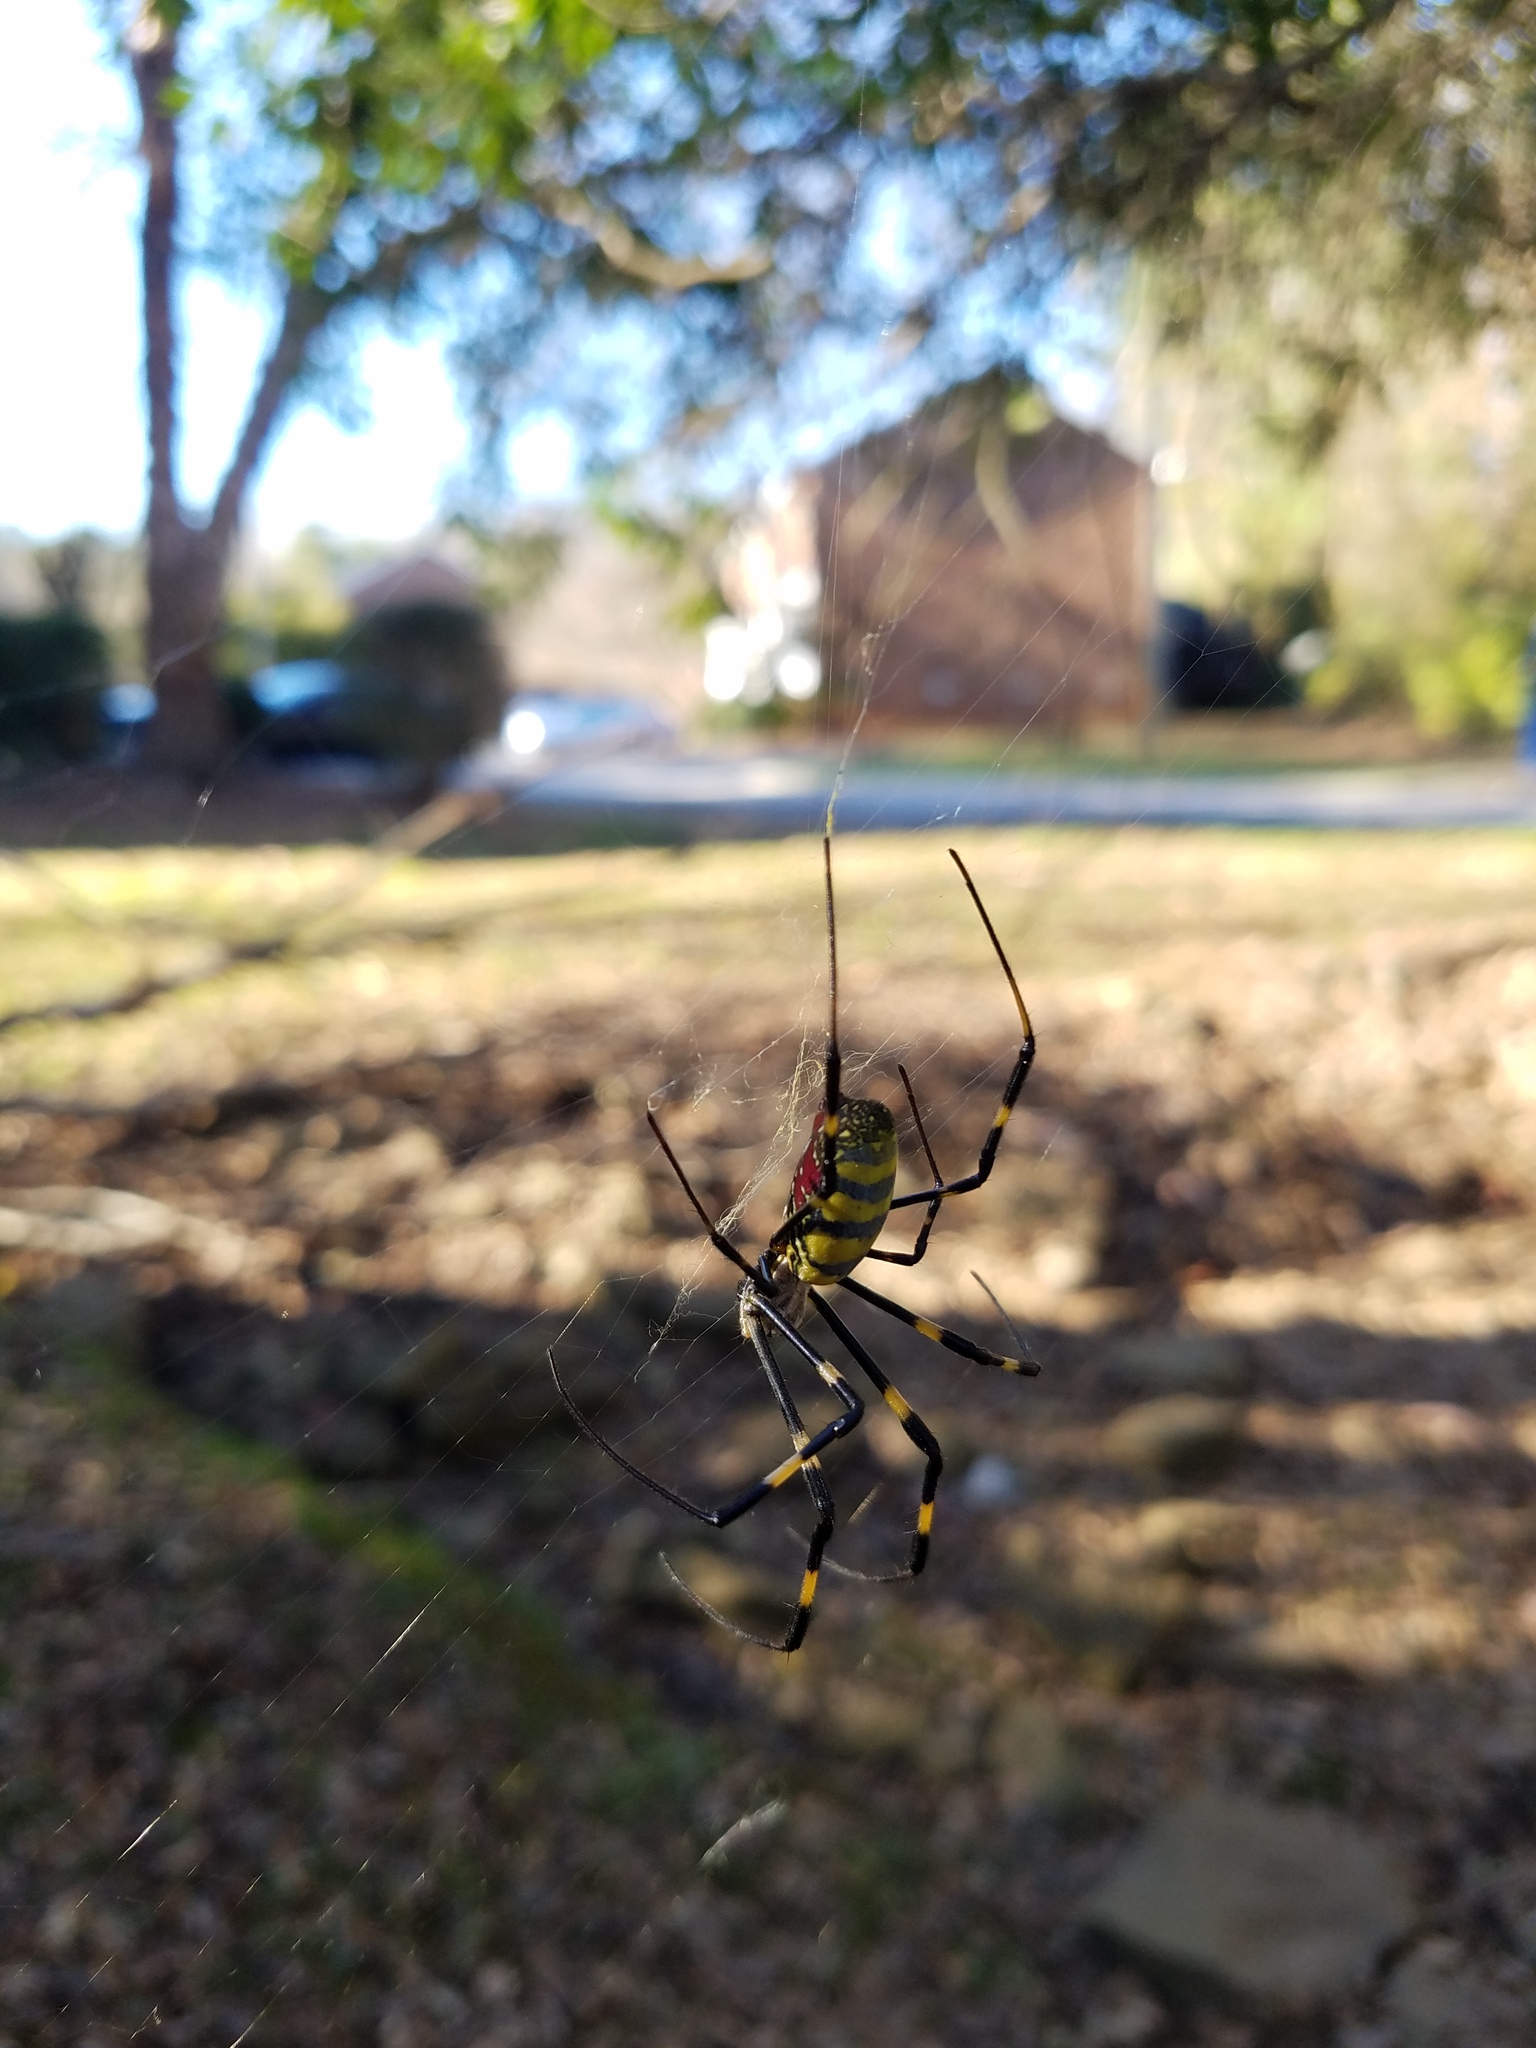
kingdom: Animalia
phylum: Arthropoda
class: Arachnida
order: Araneae
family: Araneidae
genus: Trichonephila
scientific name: Trichonephila clavata
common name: Jorō spider
